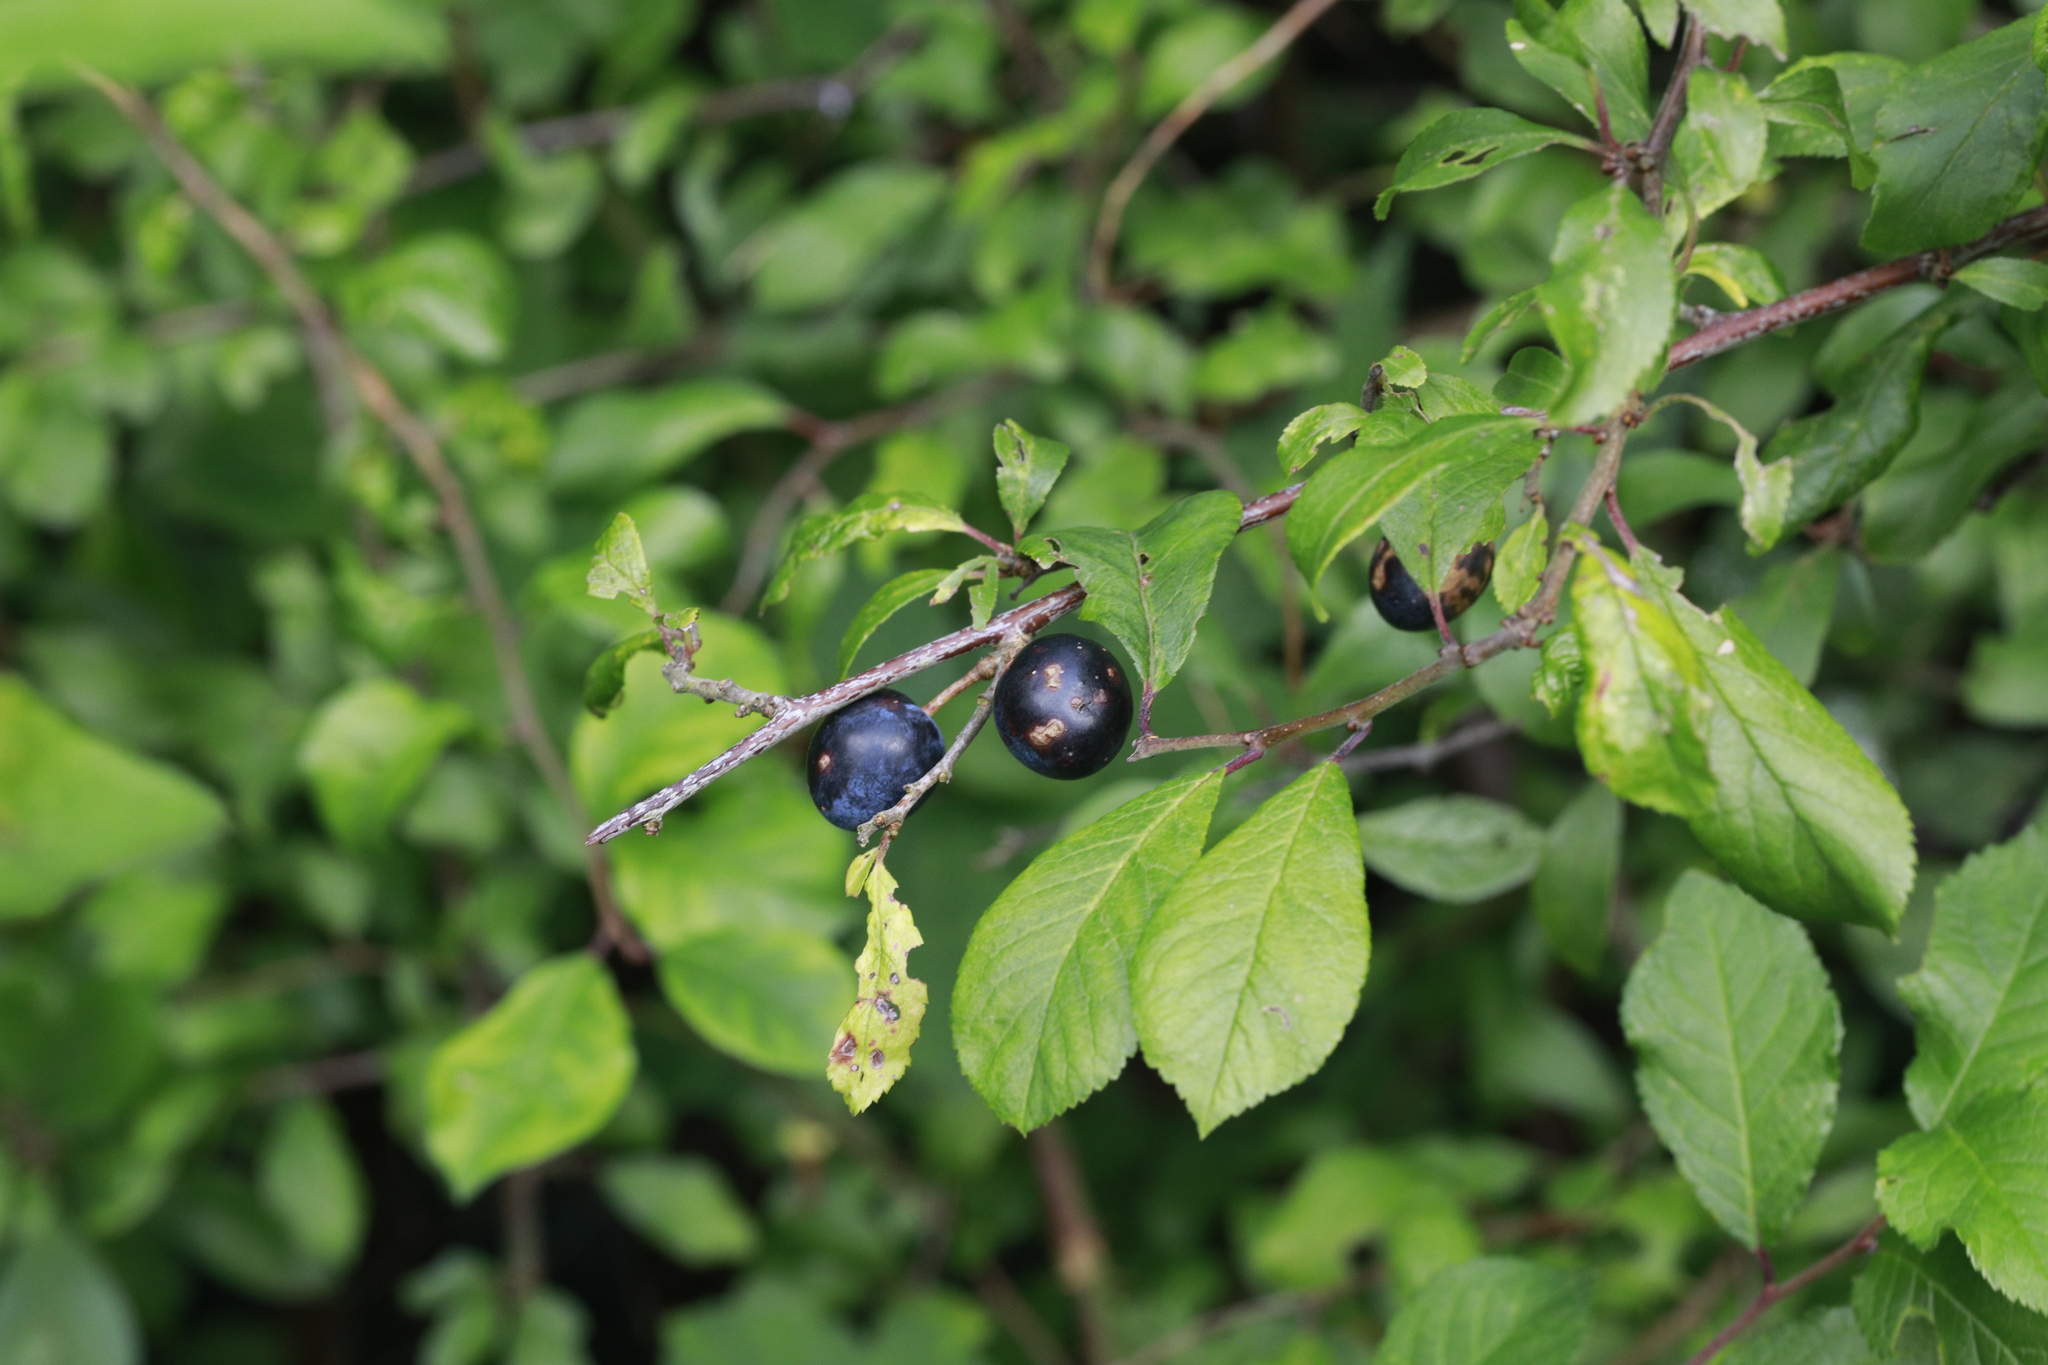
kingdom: Plantae
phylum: Tracheophyta
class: Magnoliopsida
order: Rosales
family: Rosaceae
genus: Prunus
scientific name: Prunus spinosa
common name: Blackthorn
